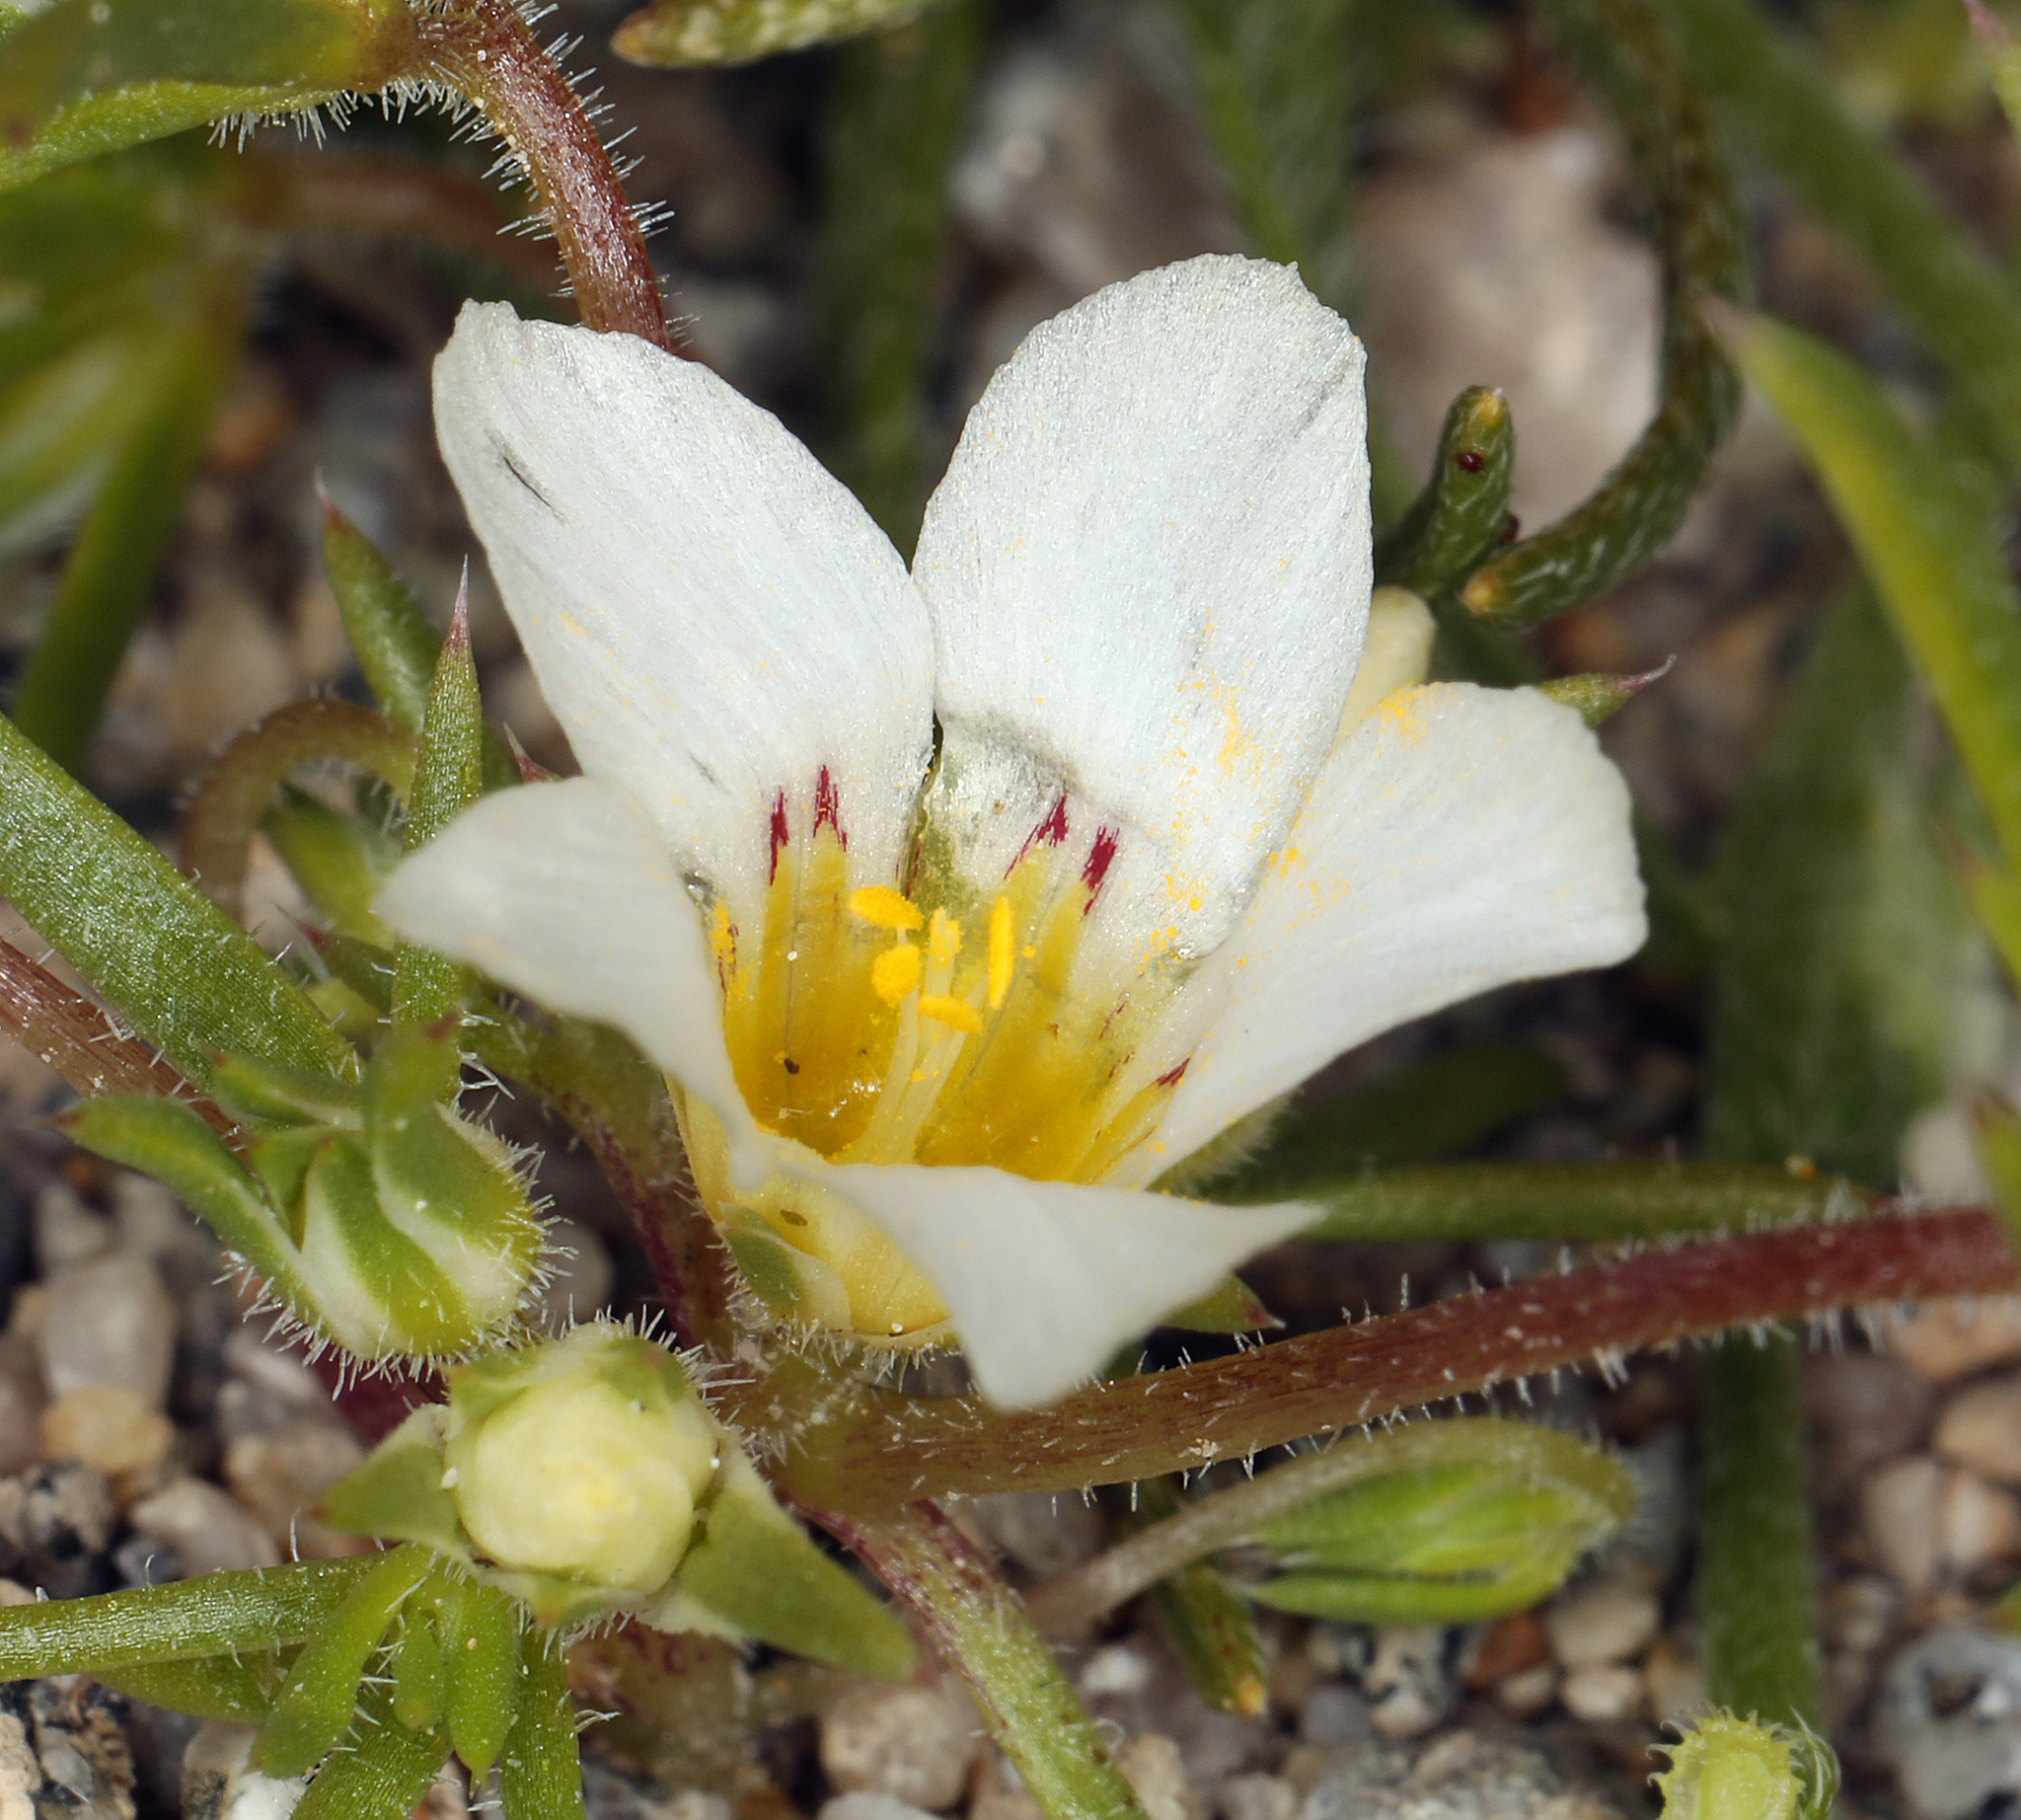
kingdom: Plantae
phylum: Tracheophyta
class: Magnoliopsida
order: Ericales
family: Polemoniaceae
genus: Linanthus
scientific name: Linanthus demissus
